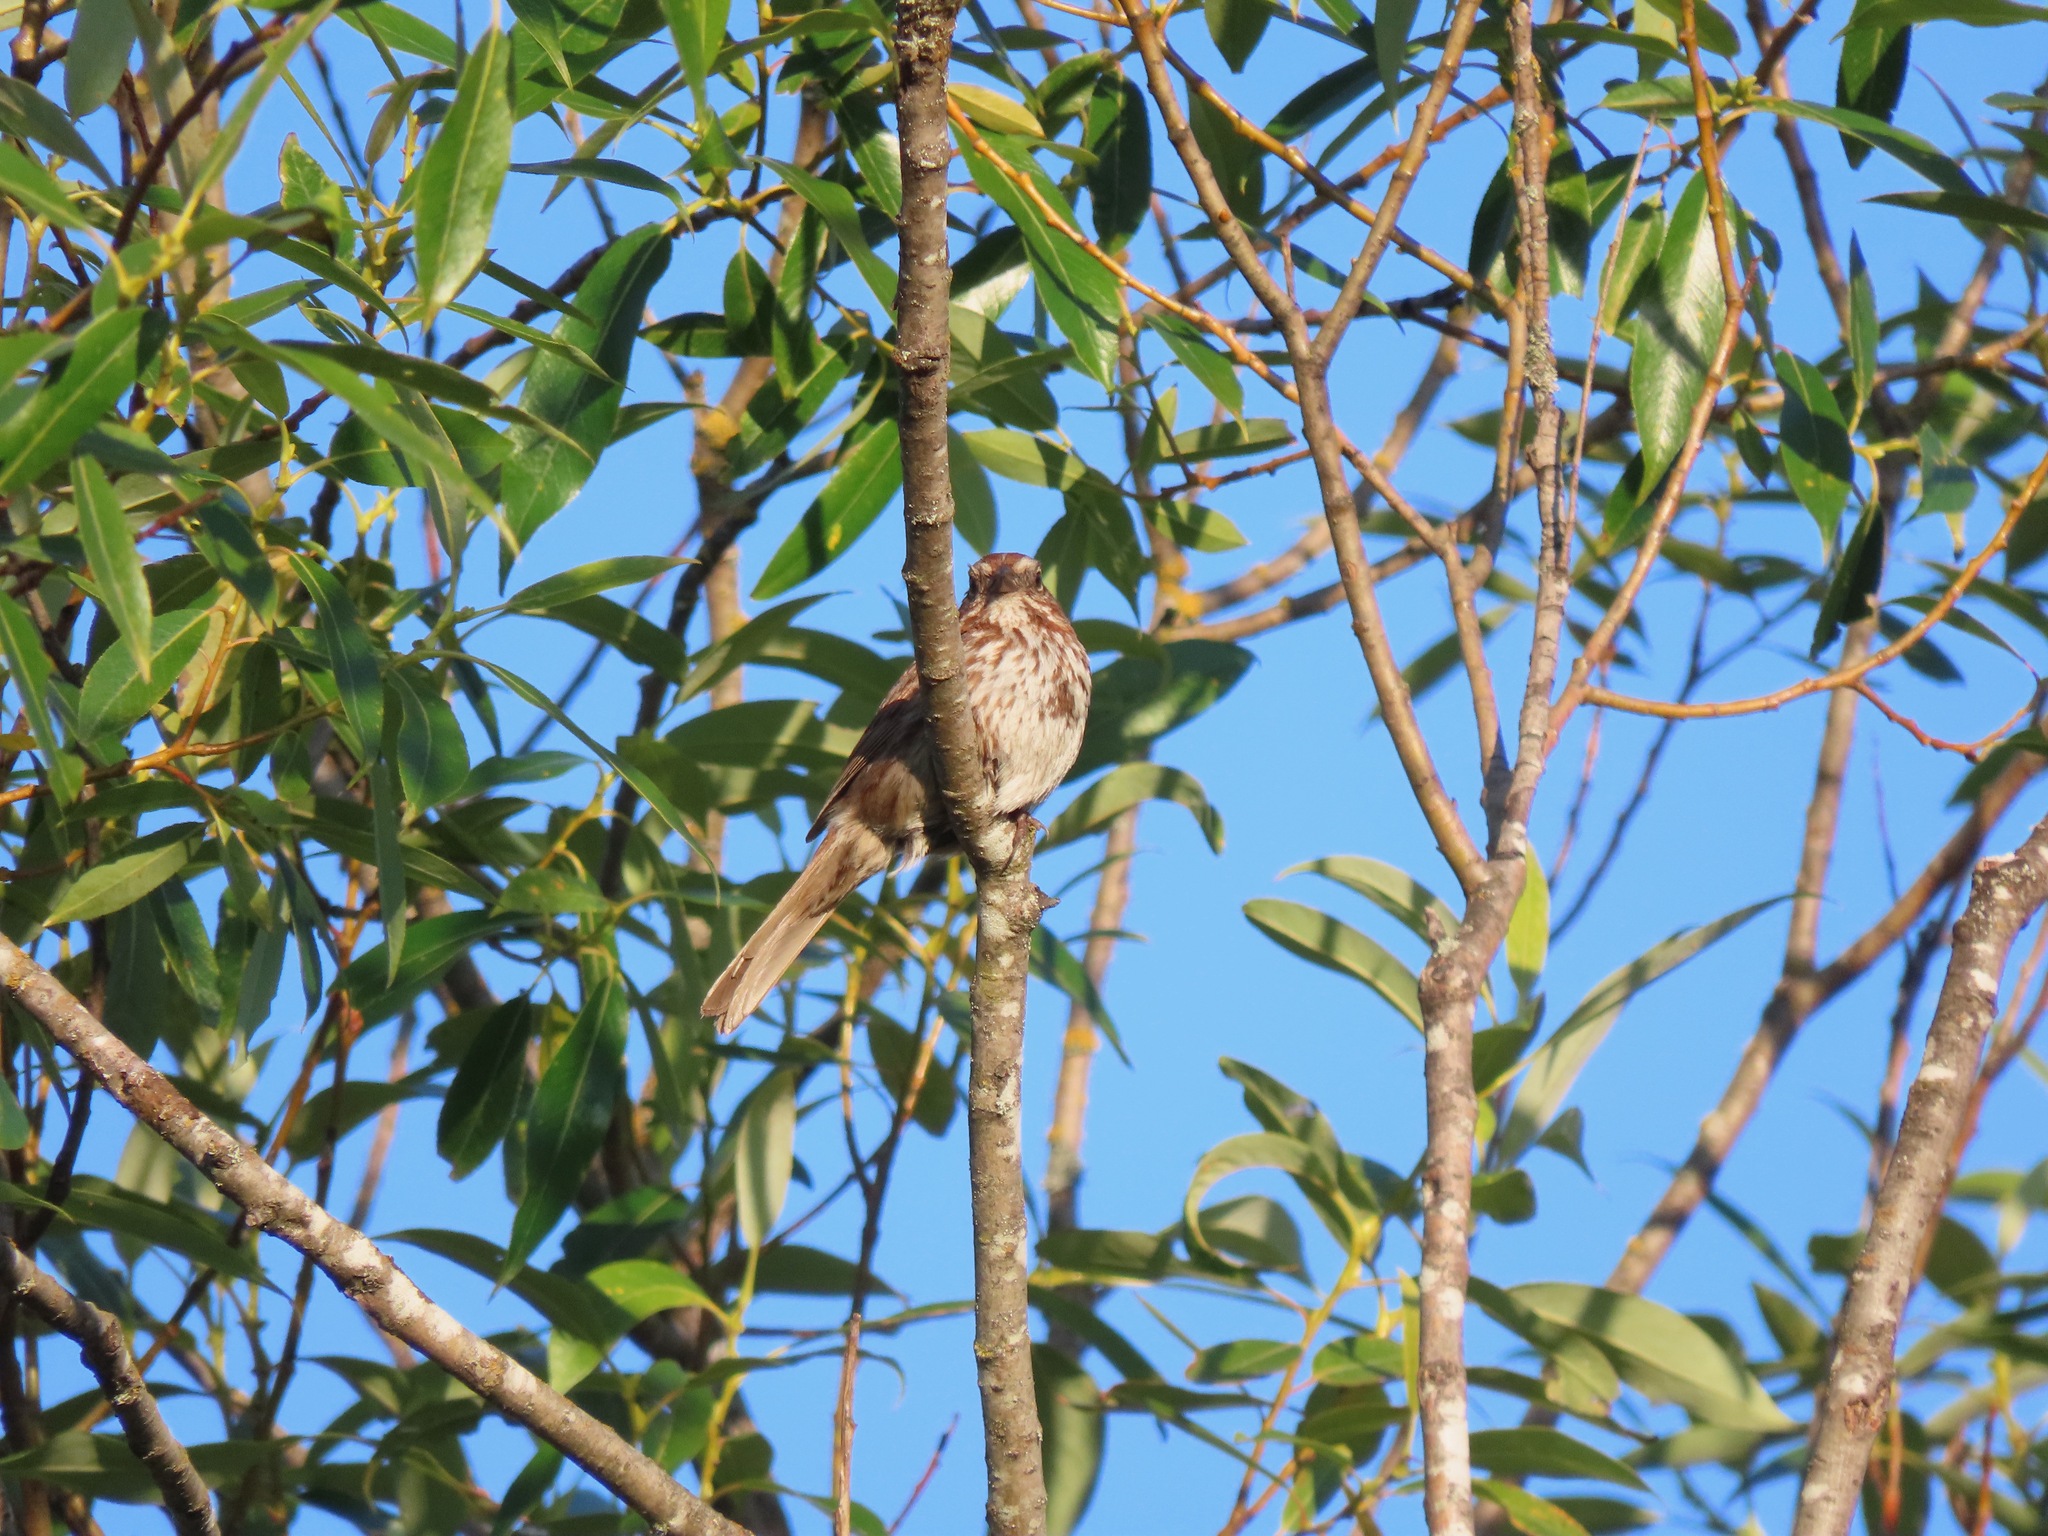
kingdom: Animalia
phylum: Chordata
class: Aves
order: Passeriformes
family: Passerellidae
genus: Melospiza
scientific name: Melospiza melodia
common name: Song sparrow
